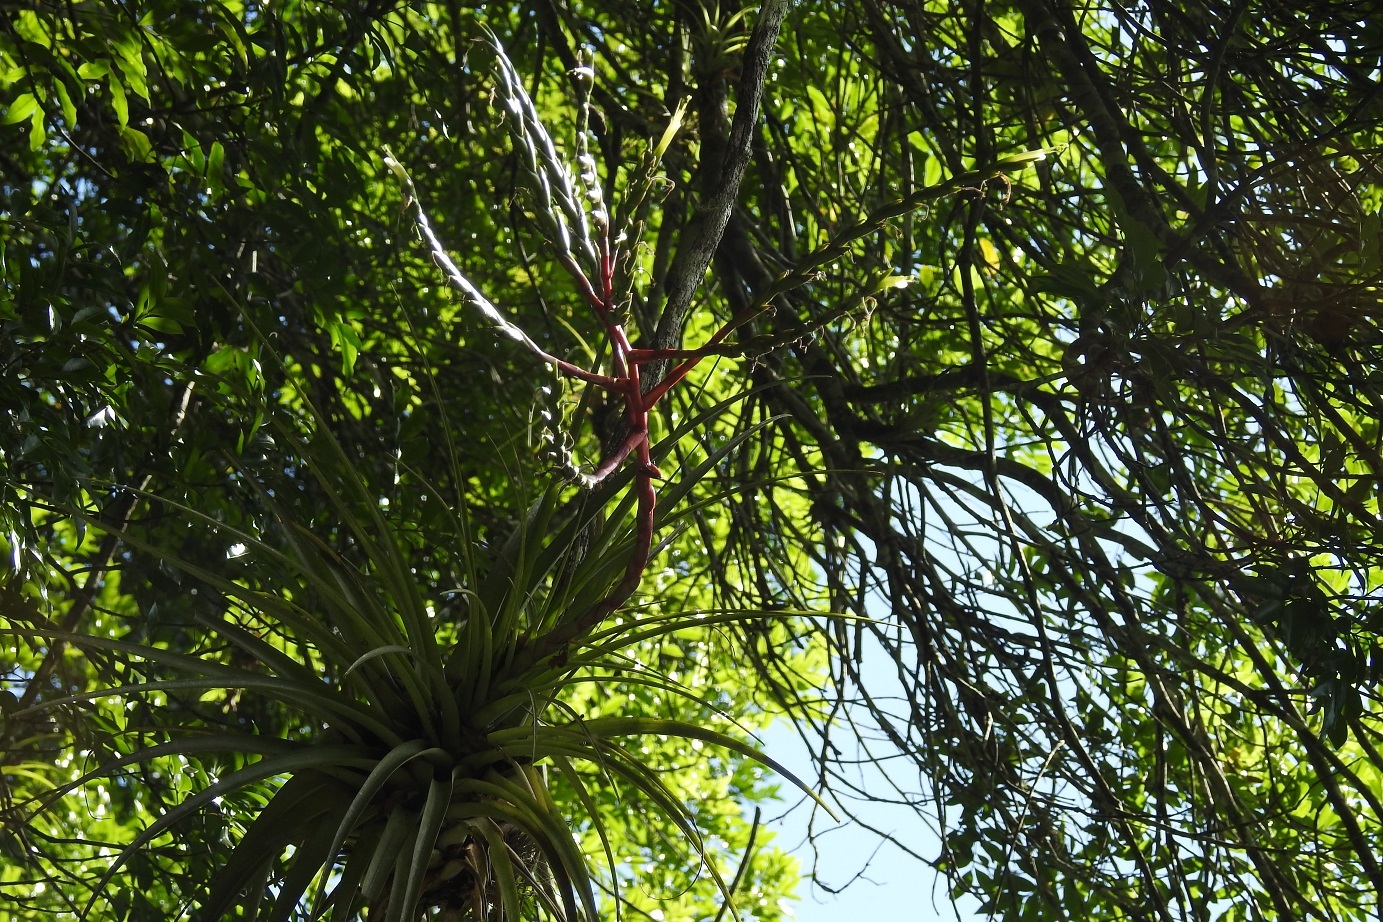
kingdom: Plantae
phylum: Tracheophyta
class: Liliopsida
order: Poales
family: Bromeliaceae
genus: Tillandsia
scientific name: Tillandsia elusiva
